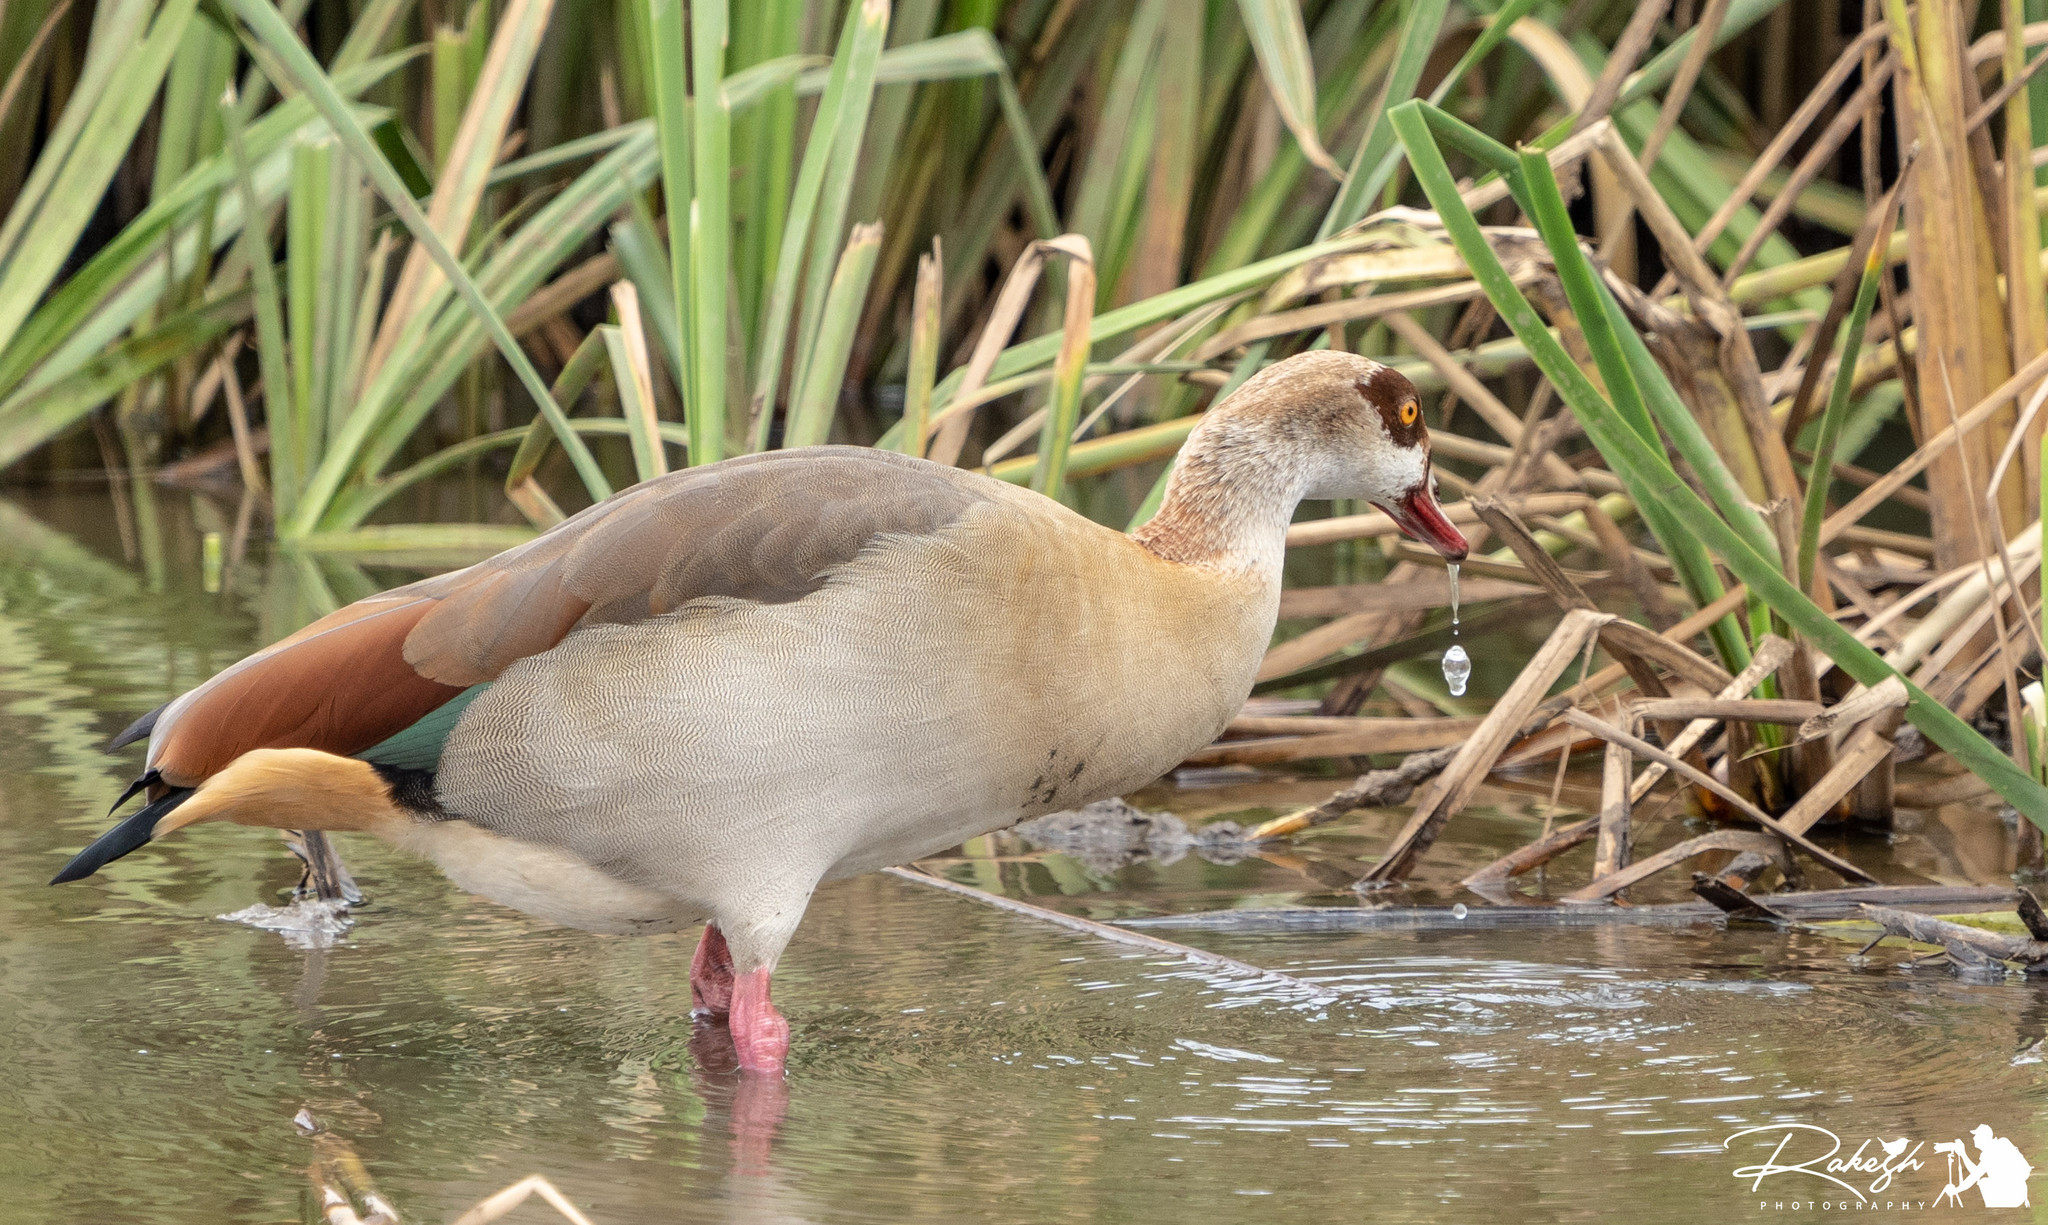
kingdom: Animalia
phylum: Chordata
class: Aves
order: Anseriformes
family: Anatidae
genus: Alopochen
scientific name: Alopochen aegyptiaca
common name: Egyptian goose
